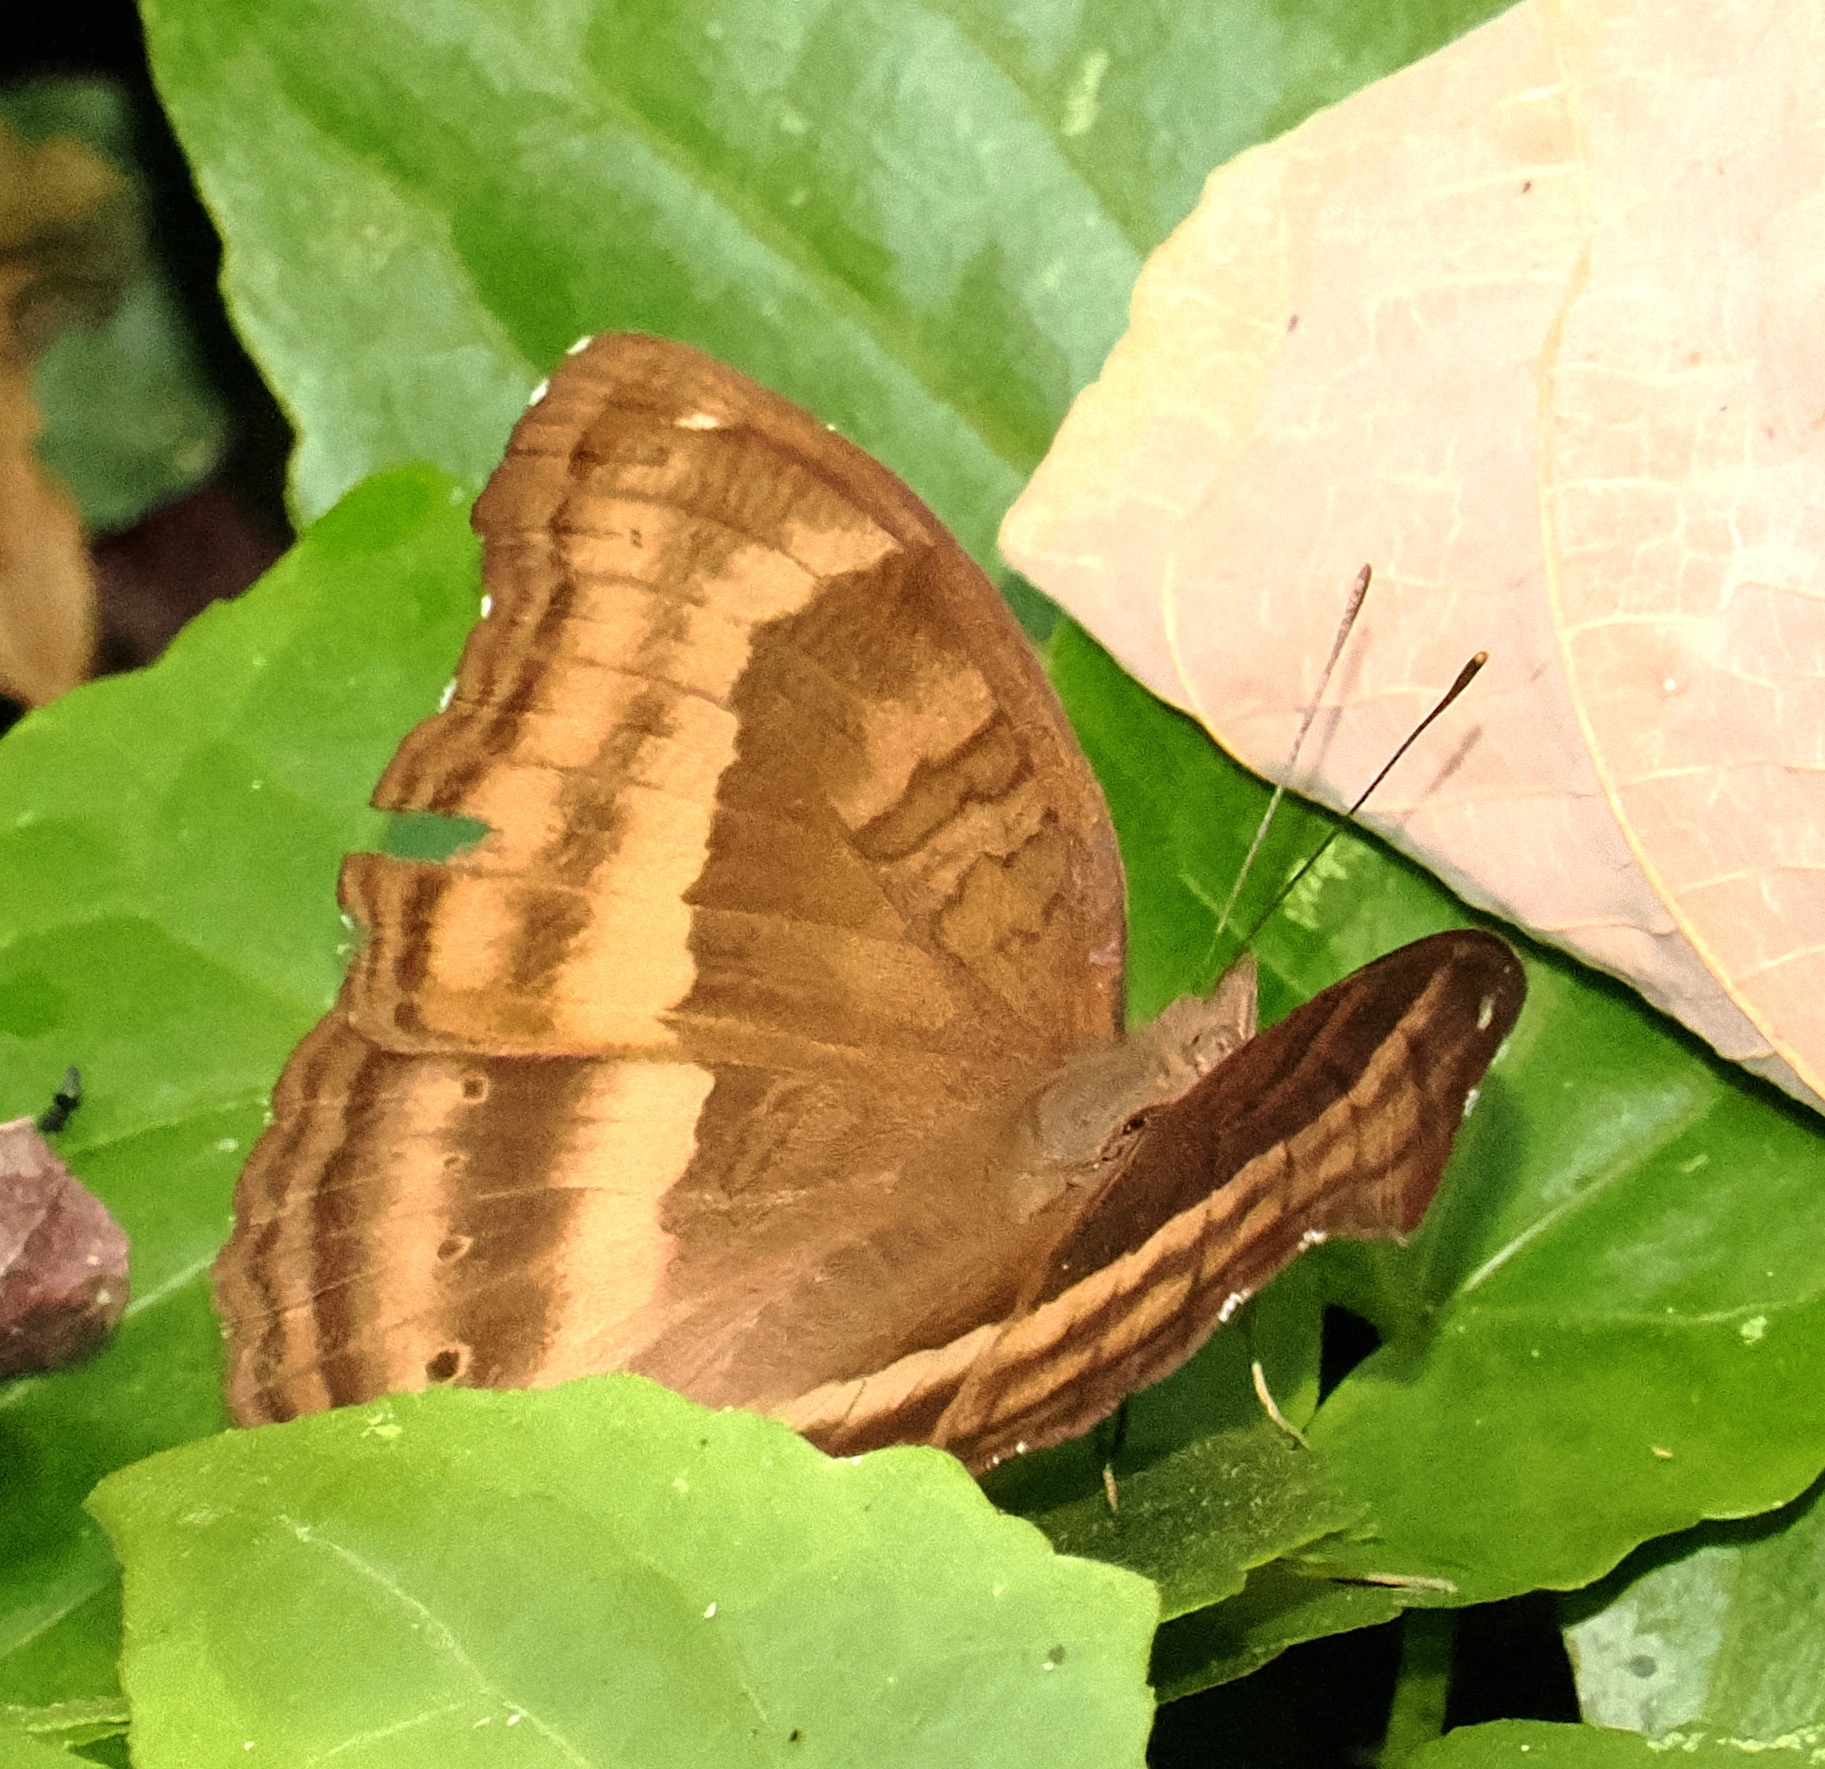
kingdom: Animalia
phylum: Arthropoda
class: Insecta
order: Lepidoptera
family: Nymphalidae
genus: Junonia
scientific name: Junonia iphita
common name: Chocolate pansy
